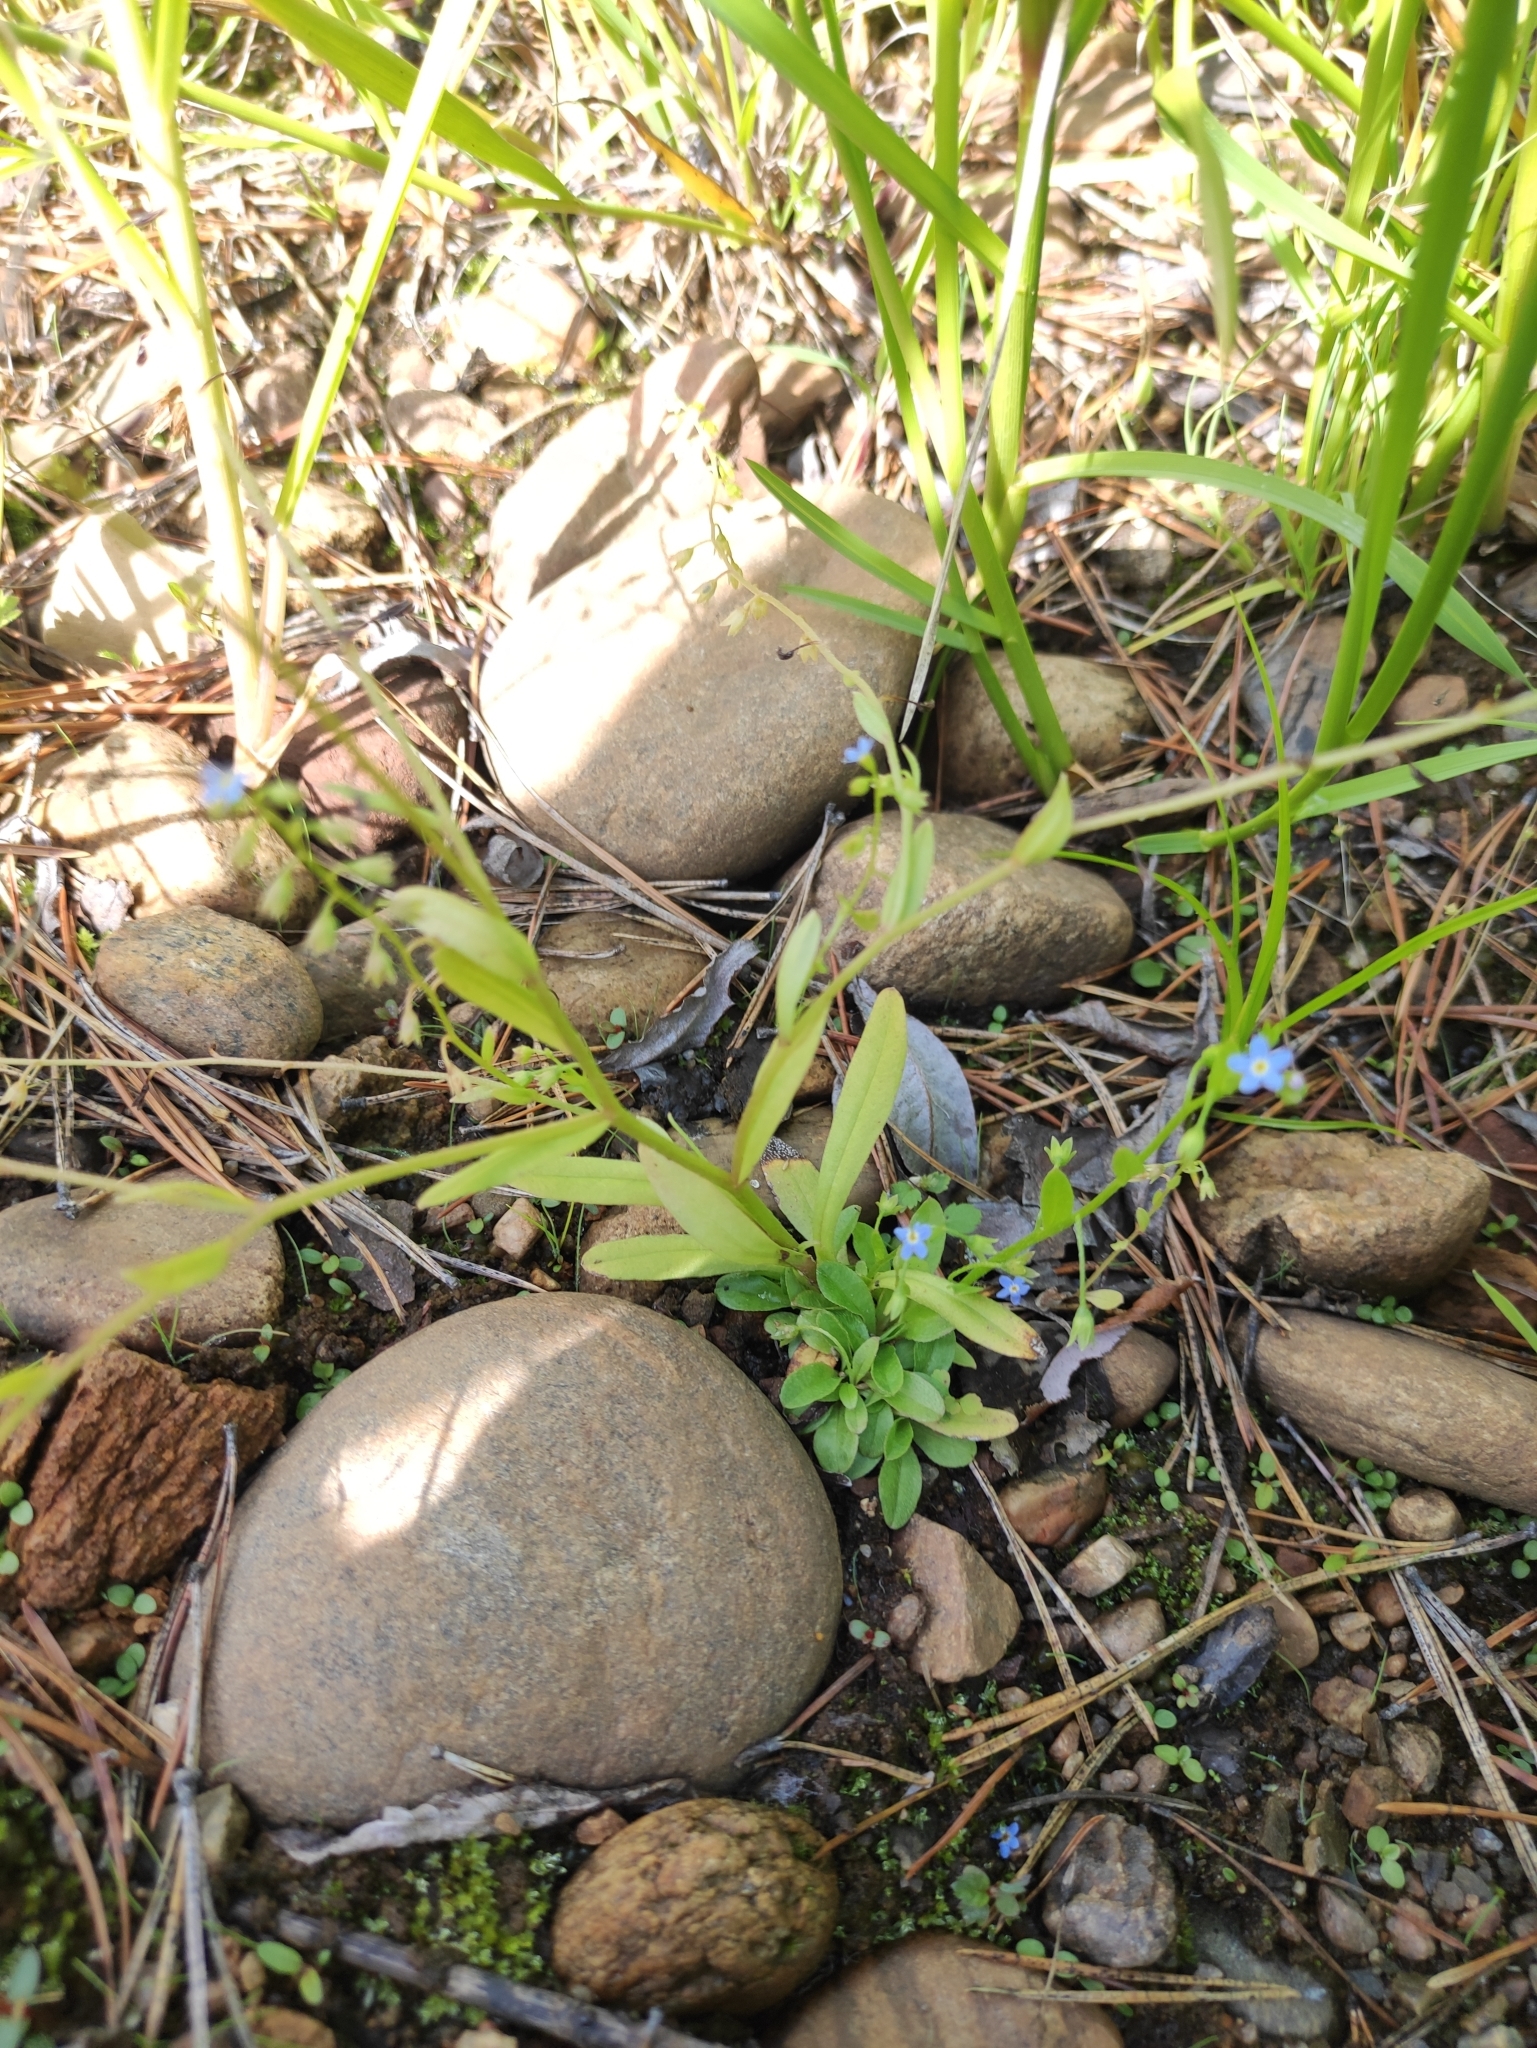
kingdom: Plantae
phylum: Tracheophyta
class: Magnoliopsida
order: Boraginales
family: Boraginaceae
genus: Myosotis
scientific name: Myosotis laxa
